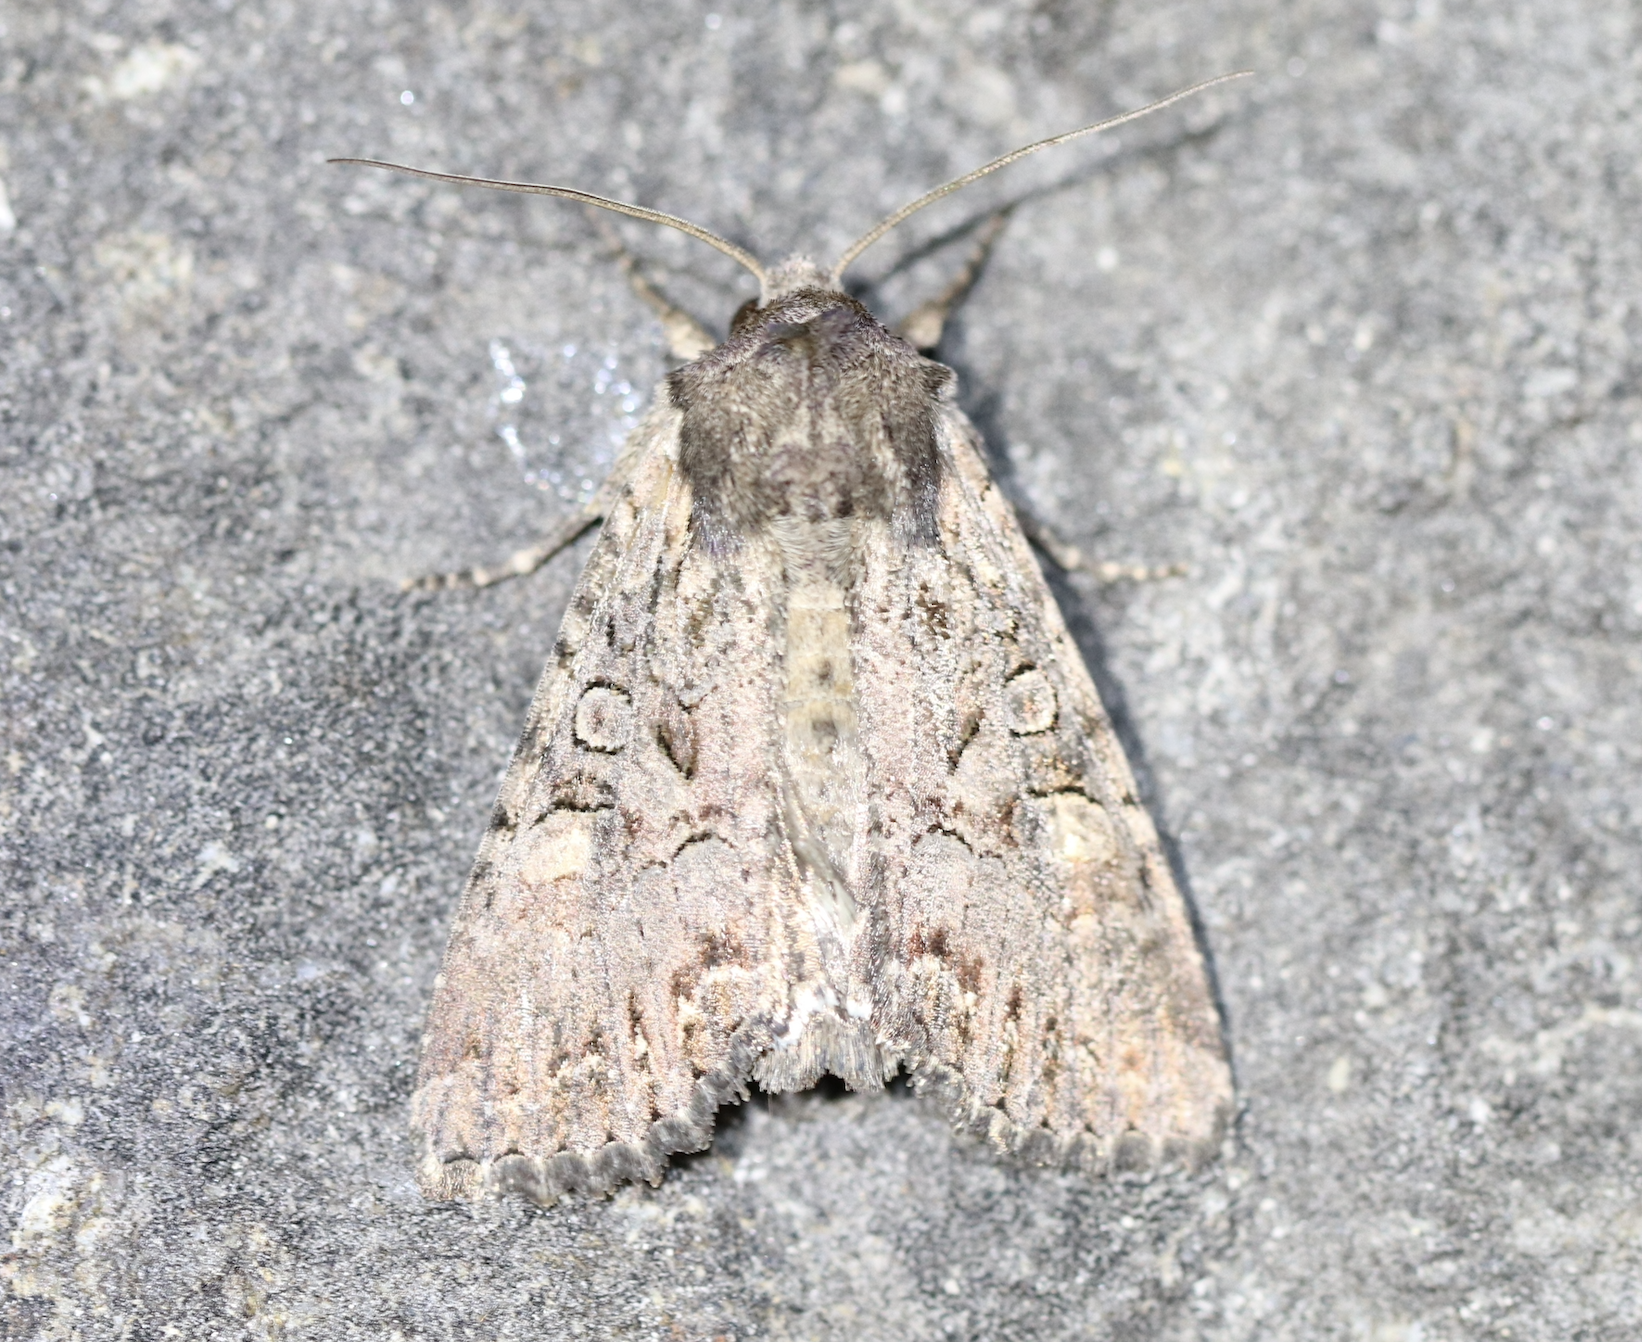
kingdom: Animalia
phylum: Arthropoda
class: Insecta
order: Lepidoptera
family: Noctuidae
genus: Lacanobia
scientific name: Lacanobia aliena
